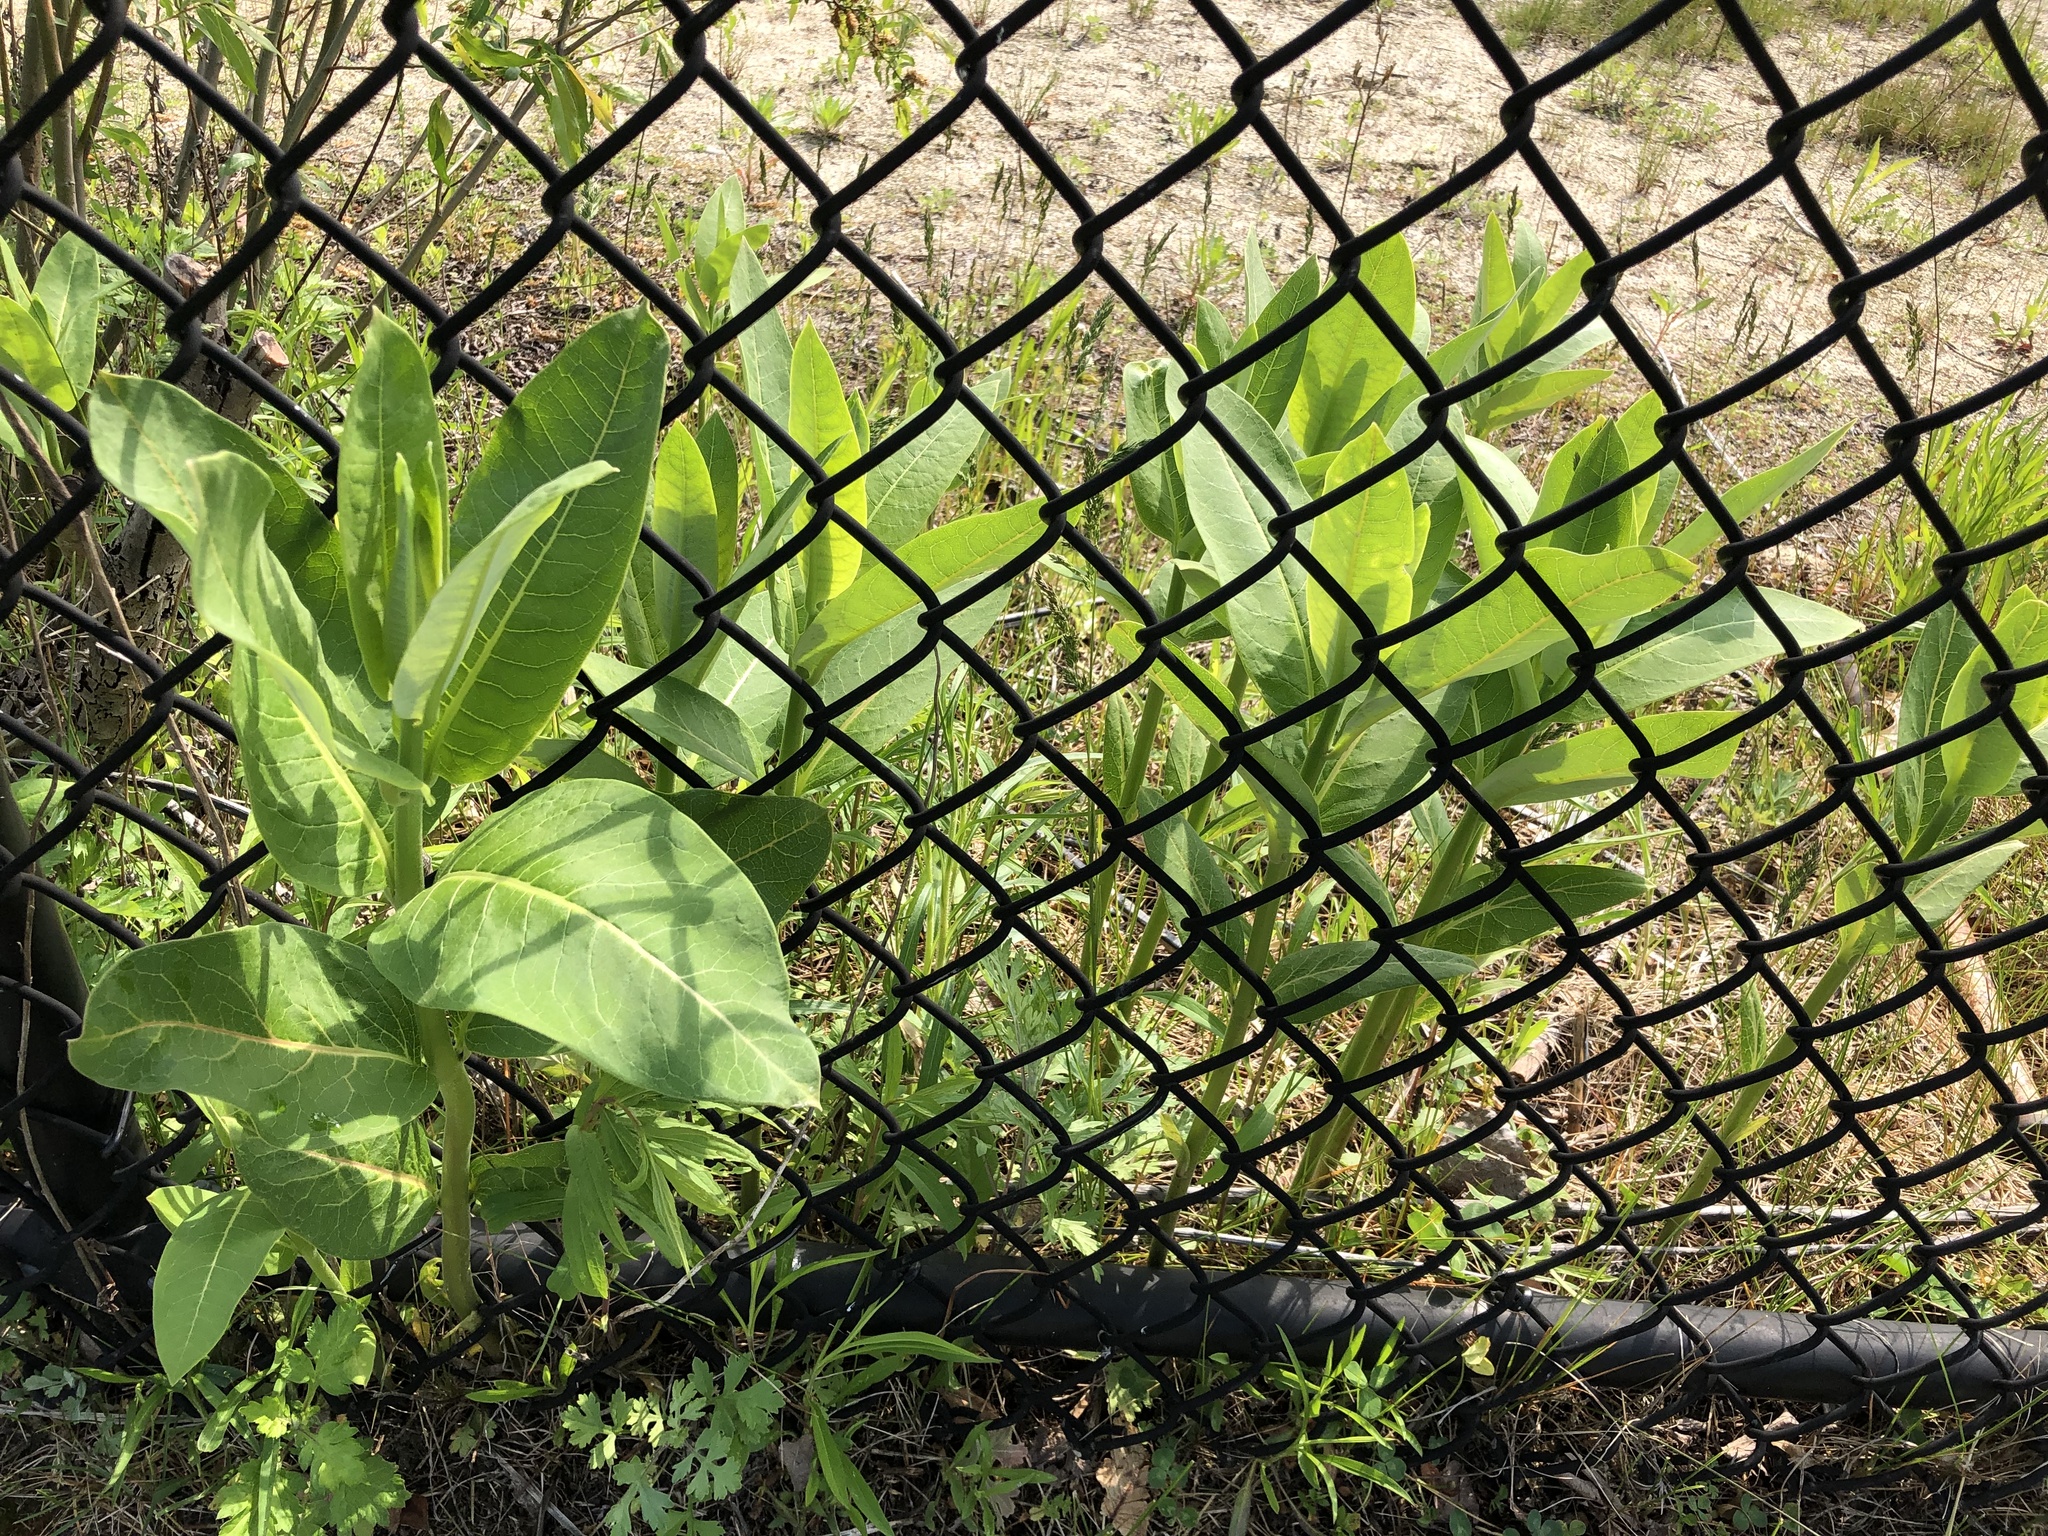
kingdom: Plantae
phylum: Tracheophyta
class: Magnoliopsida
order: Gentianales
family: Apocynaceae
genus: Asclepias
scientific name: Asclepias syriaca
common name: Common milkweed
